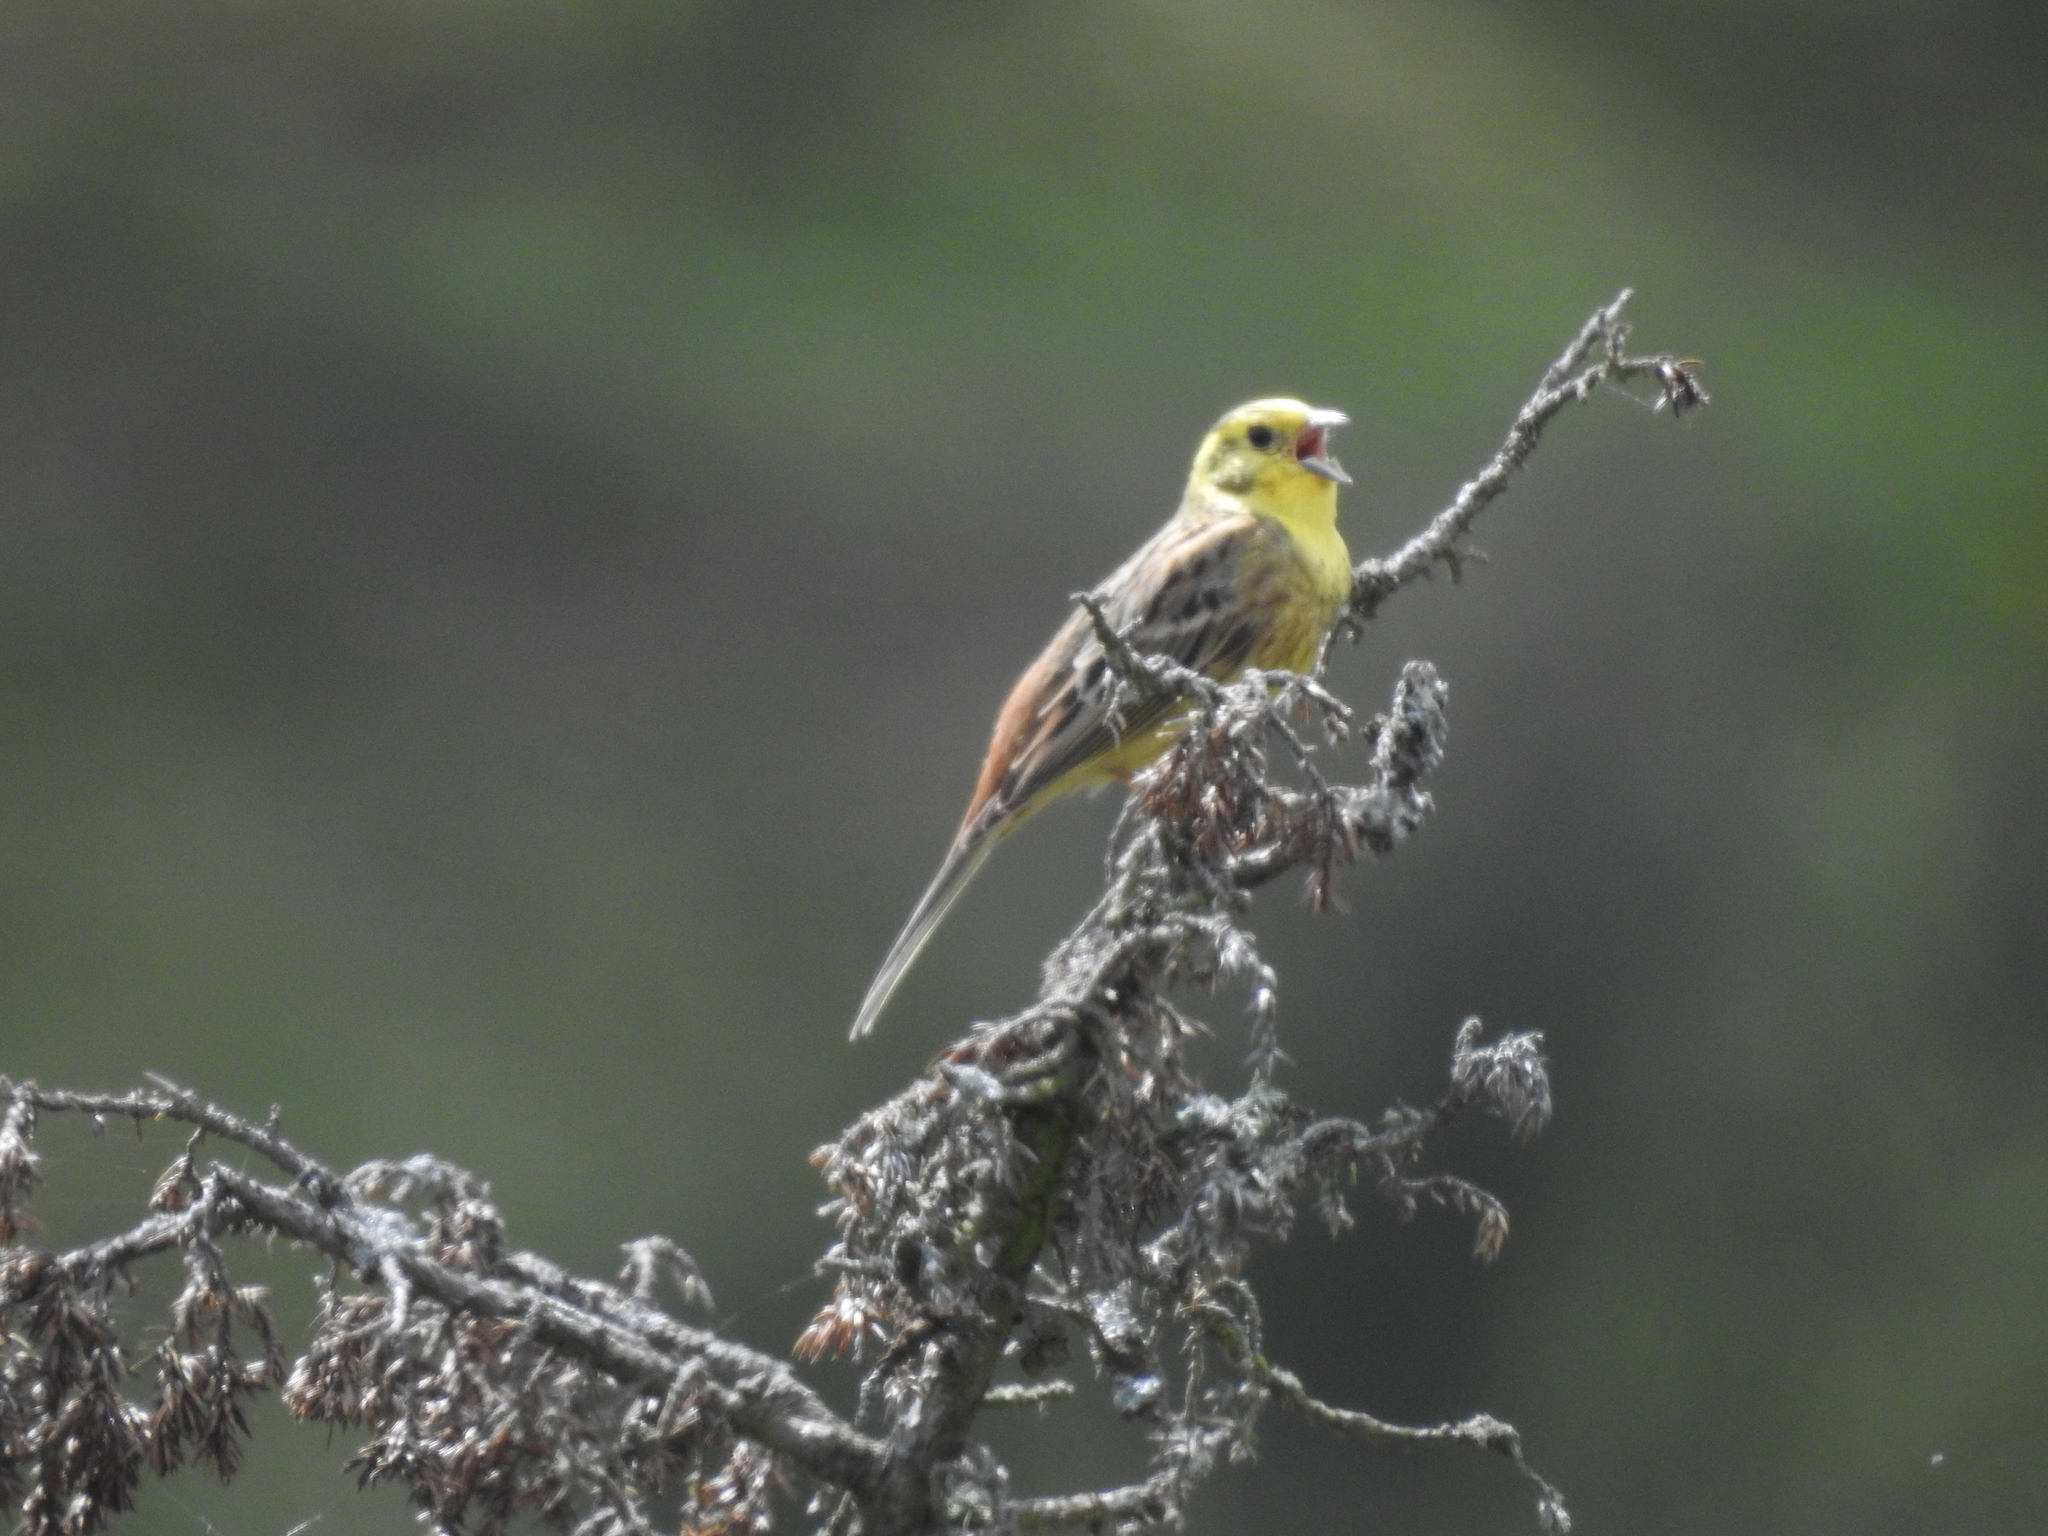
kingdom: Animalia
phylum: Chordata
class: Aves
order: Passeriformes
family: Emberizidae
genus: Emberiza
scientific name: Emberiza citrinella
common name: Yellowhammer
